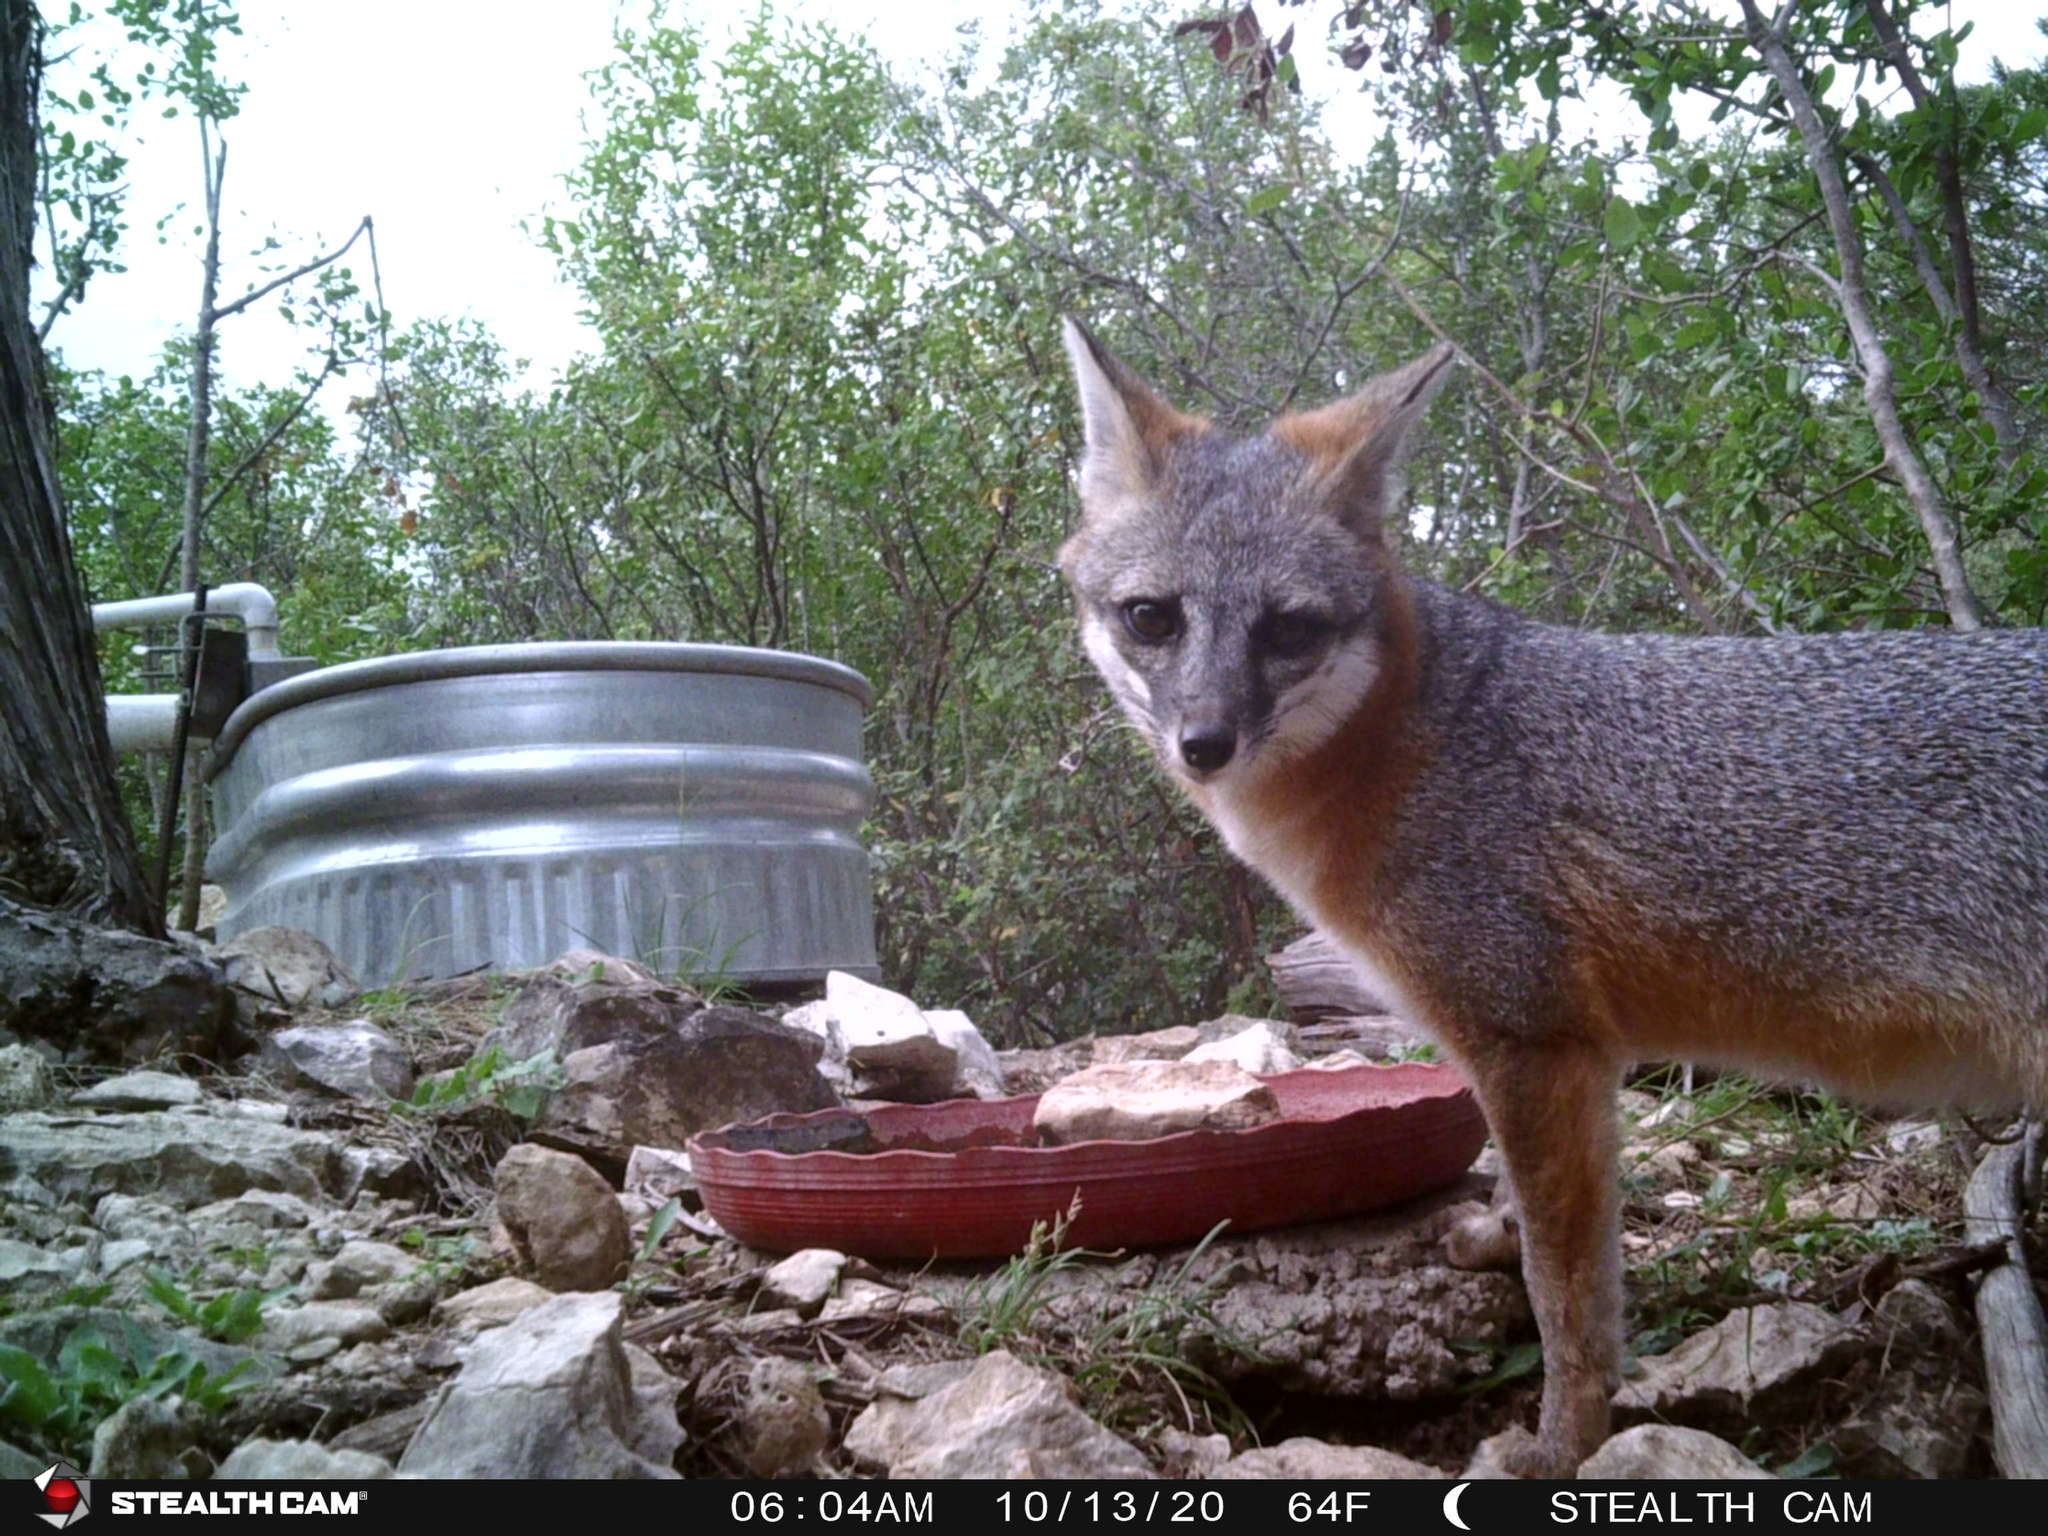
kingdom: Animalia
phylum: Chordata
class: Mammalia
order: Carnivora
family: Canidae
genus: Urocyon
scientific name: Urocyon cinereoargenteus
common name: Gray fox
